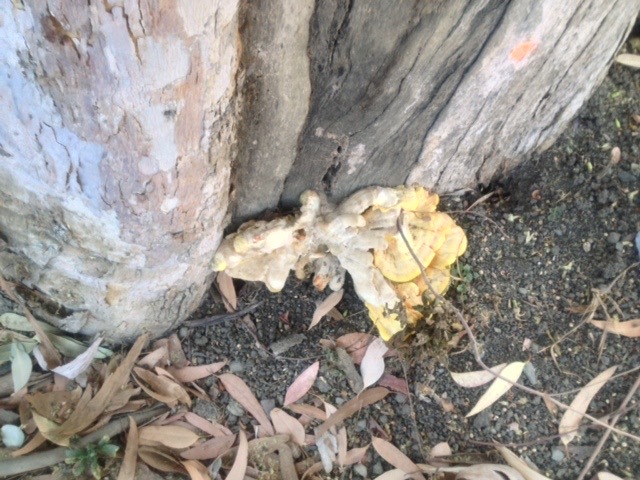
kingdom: Fungi
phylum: Basidiomycota
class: Agaricomycetes
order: Polyporales
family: Laetiporaceae
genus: Laetiporus
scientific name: Laetiporus gilbertsonii
